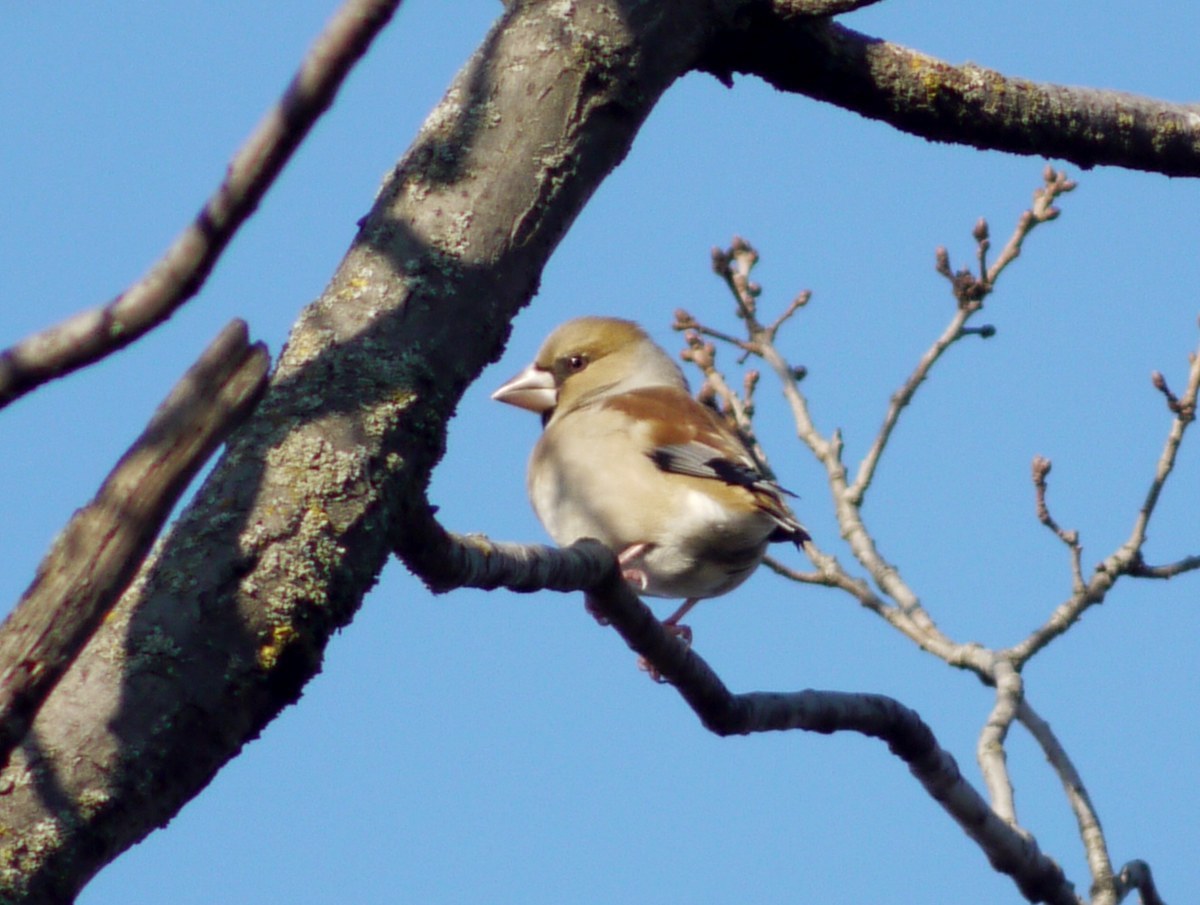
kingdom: Animalia
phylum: Chordata
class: Aves
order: Passeriformes
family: Fringillidae
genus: Coccothraustes
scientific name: Coccothraustes coccothraustes
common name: Hawfinch
